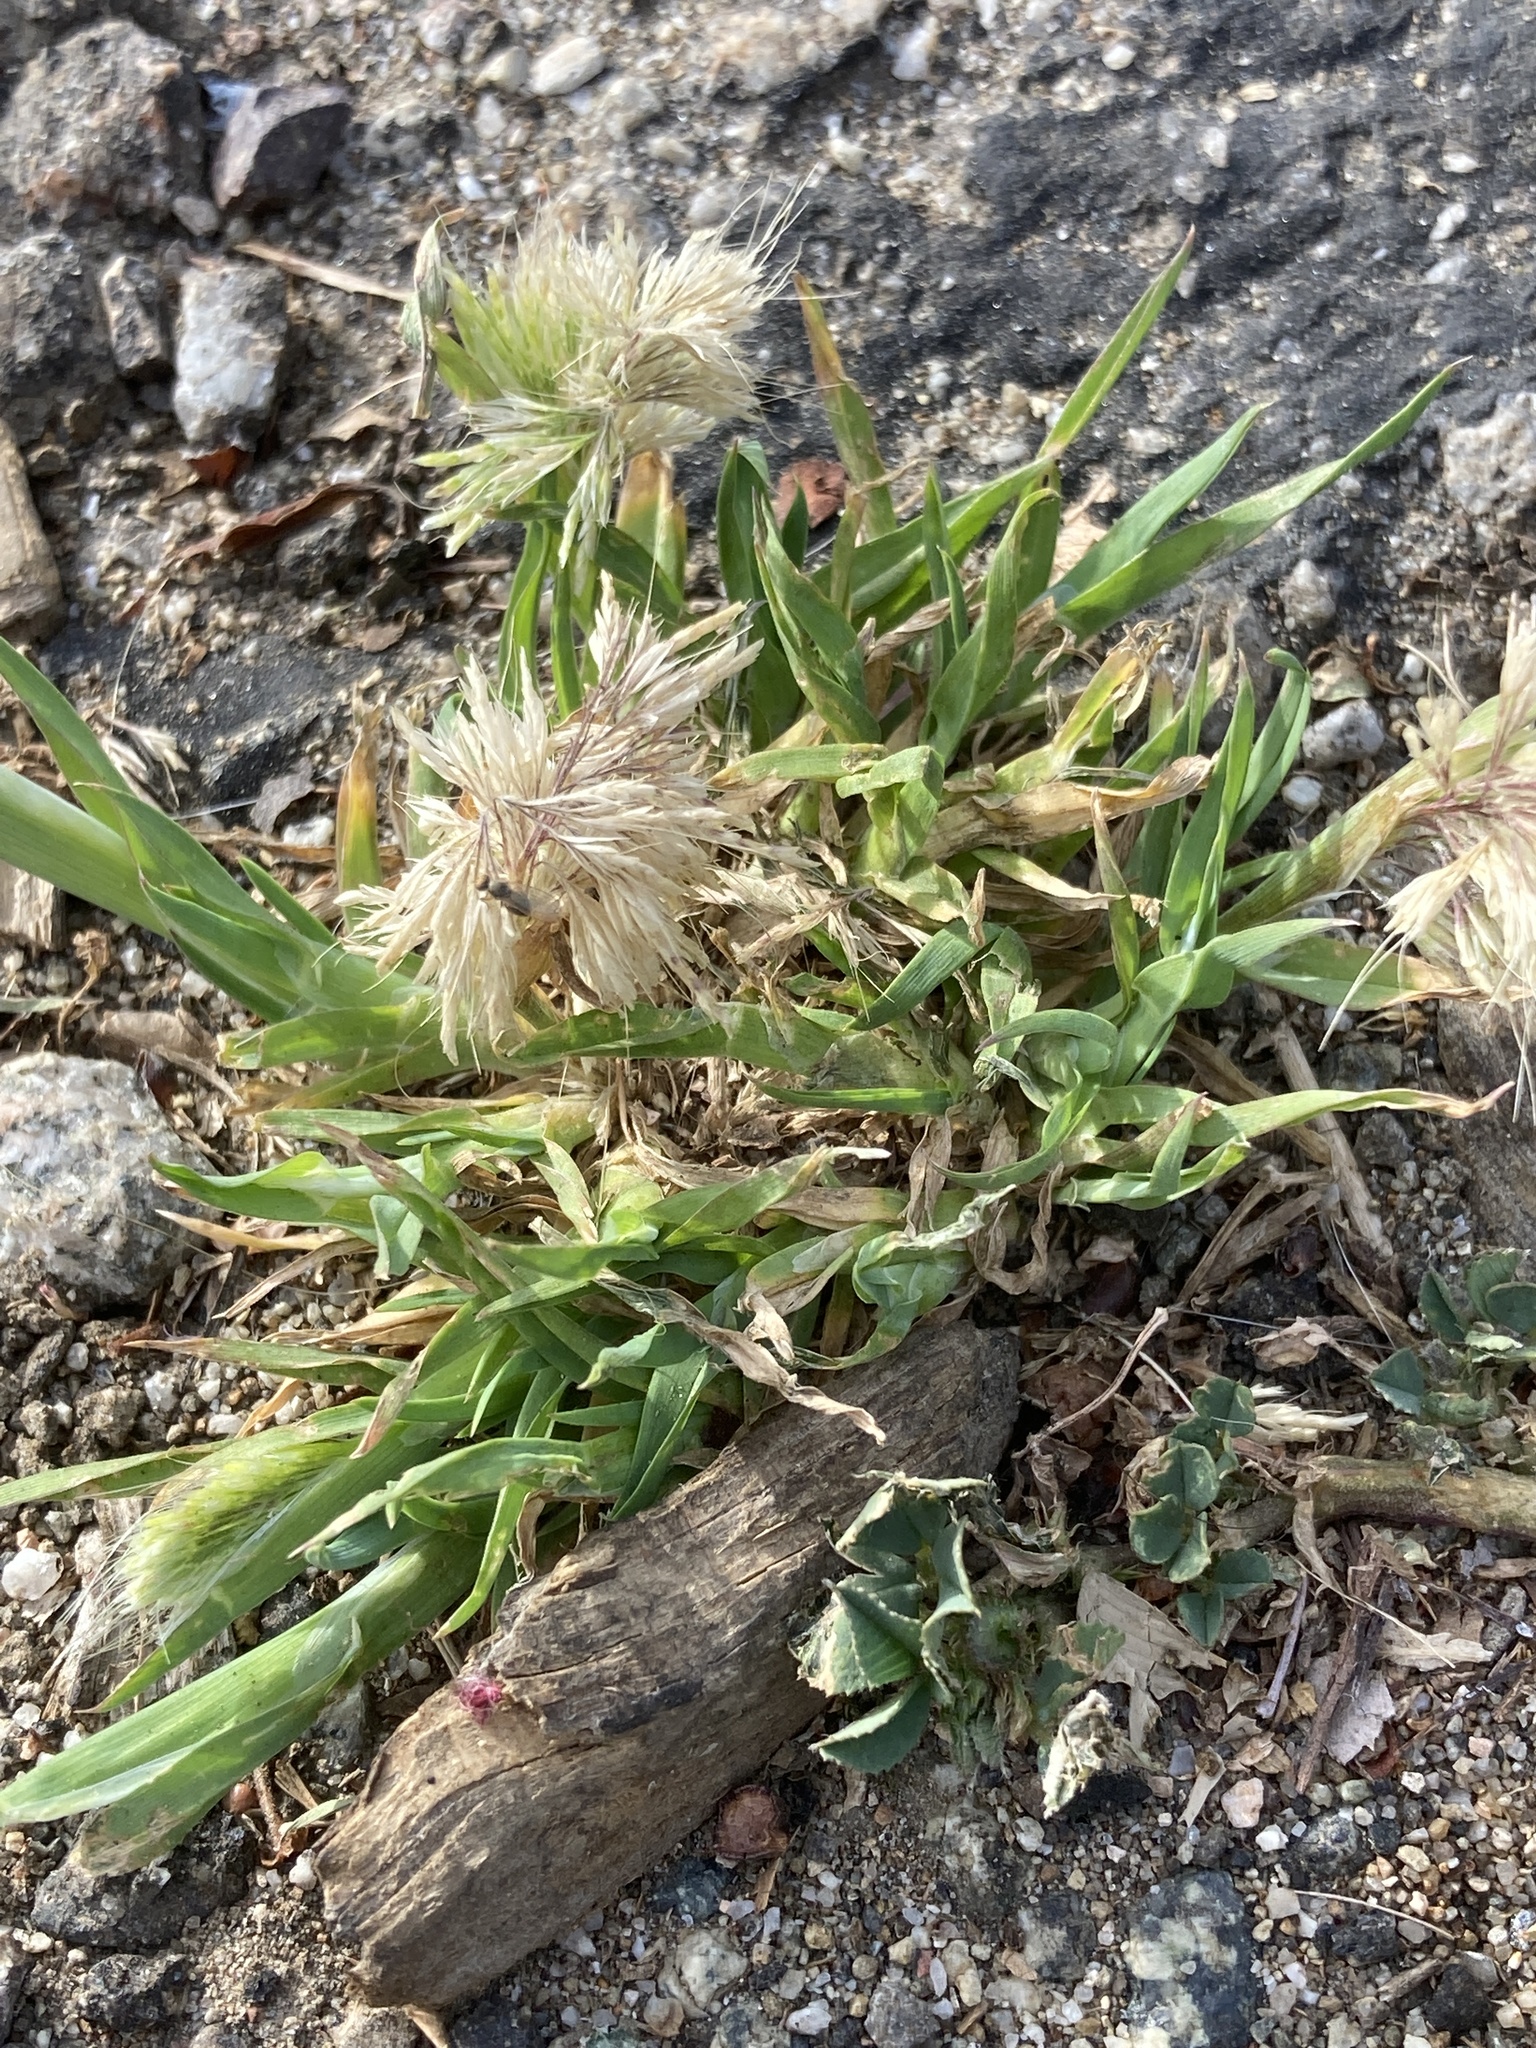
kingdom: Plantae
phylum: Tracheophyta
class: Liliopsida
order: Poales
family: Poaceae
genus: Lamarckia
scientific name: Lamarckia aurea
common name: Golden dog's-tail
